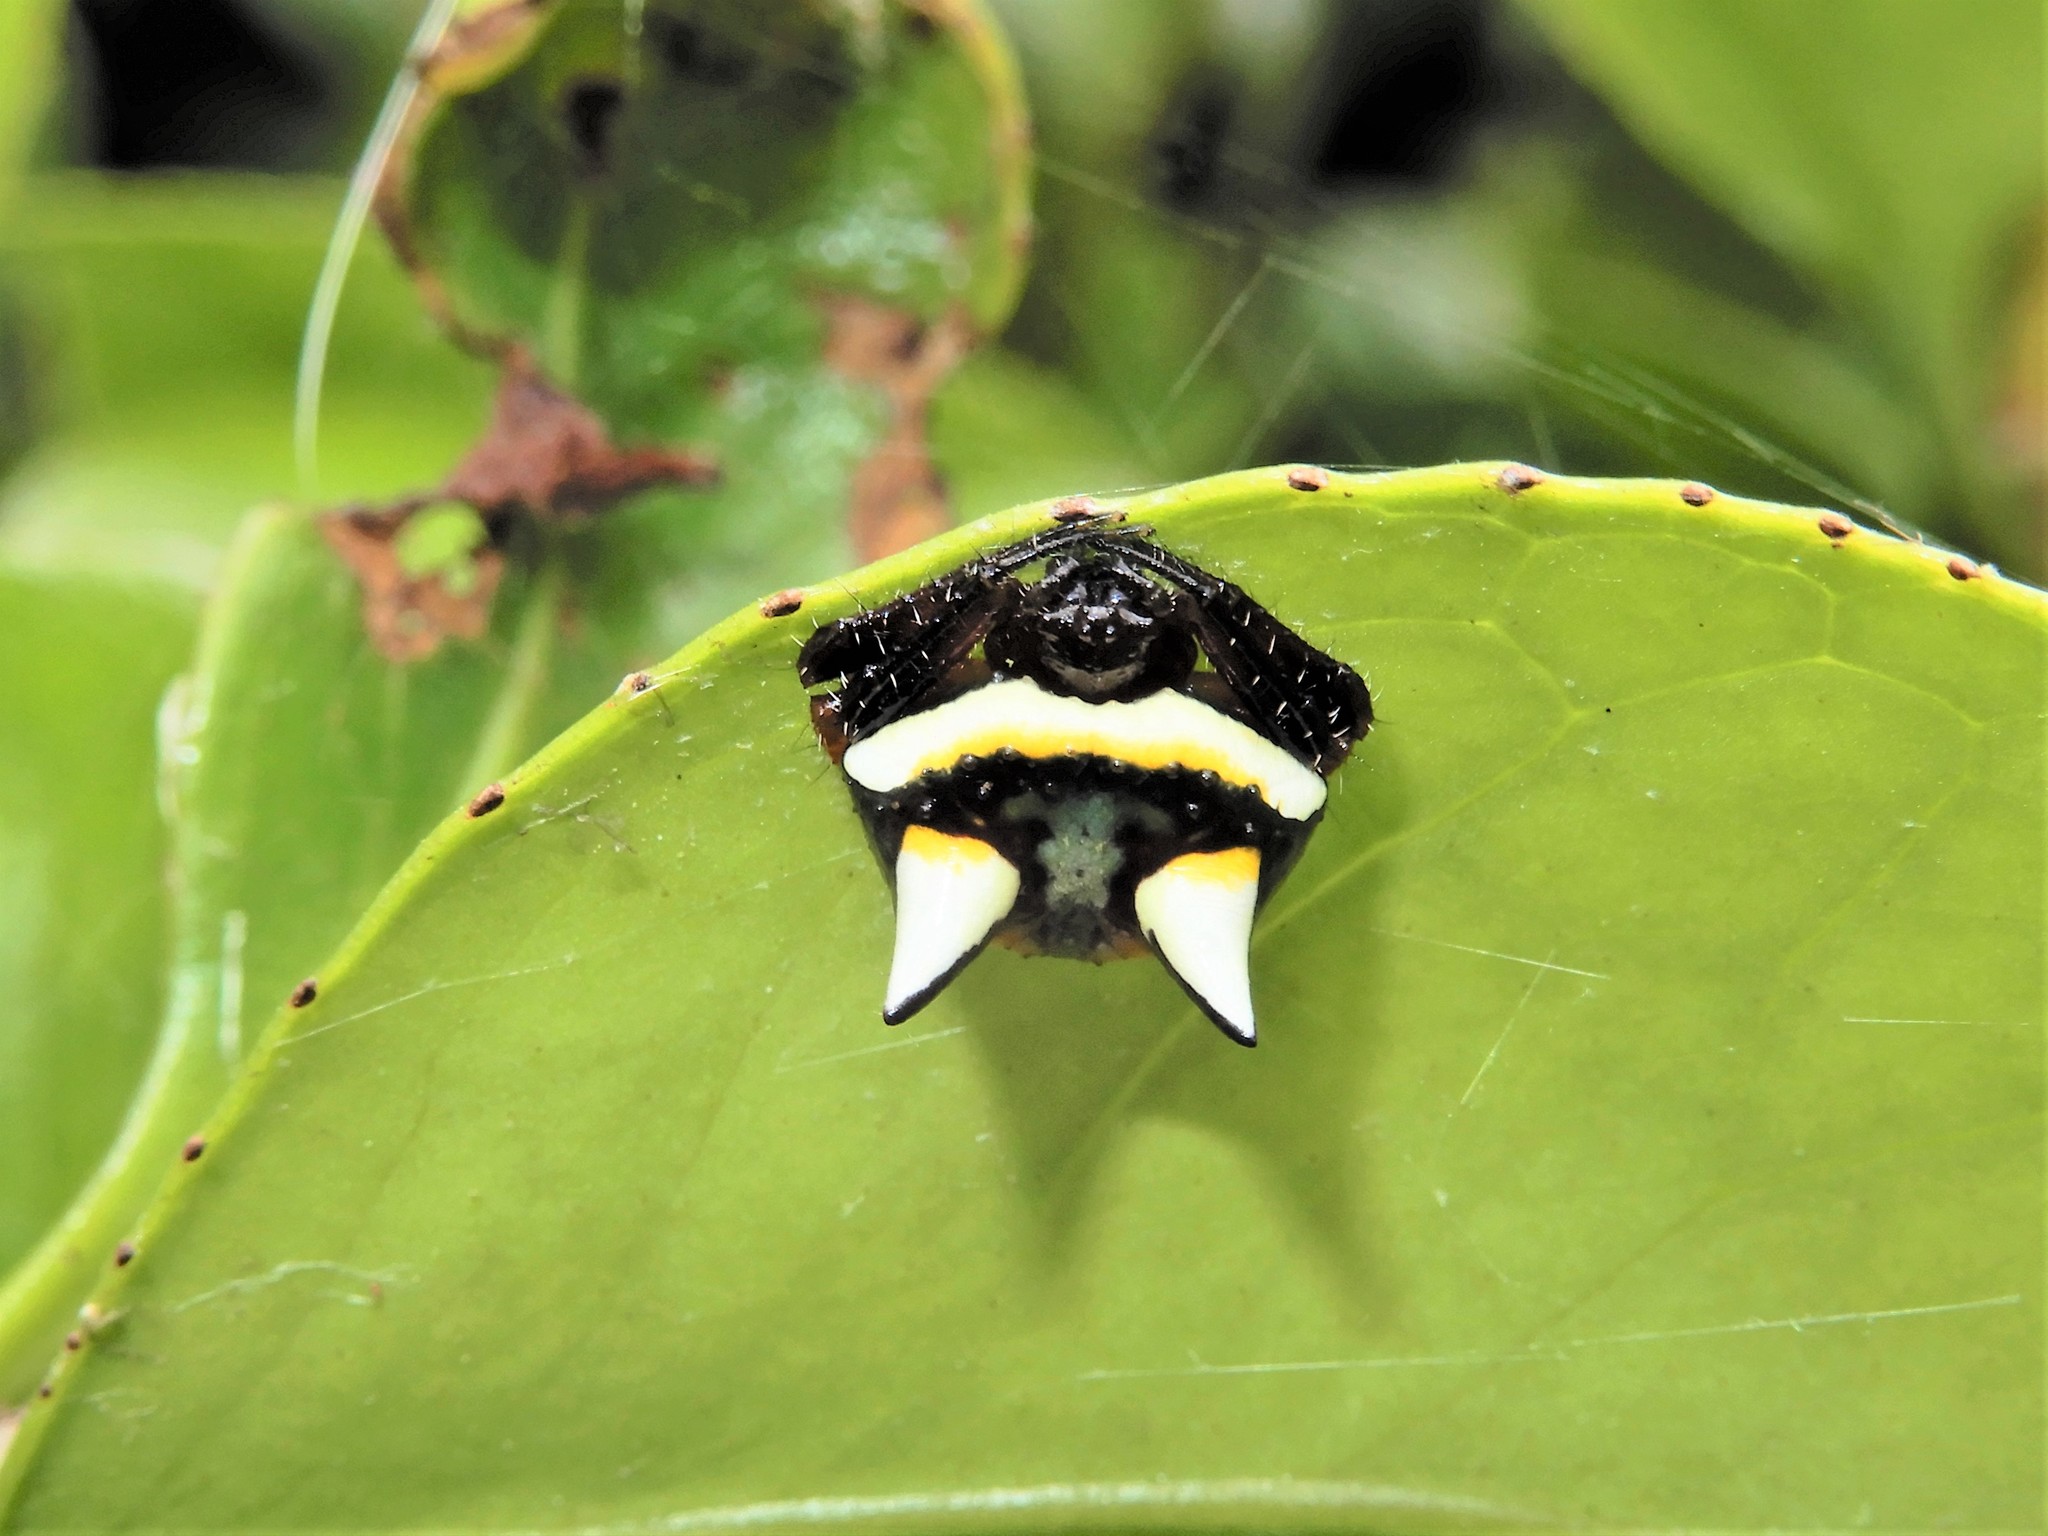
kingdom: Animalia
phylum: Arthropoda
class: Arachnida
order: Araneae
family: Araneidae
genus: Poecilopachys
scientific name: Poecilopachys australasia
